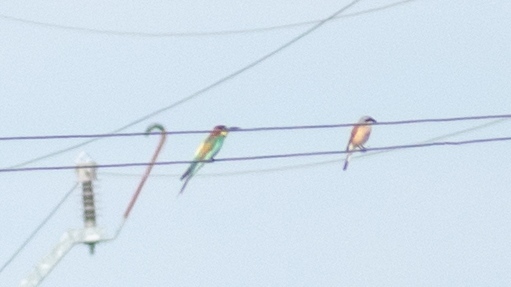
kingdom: Animalia
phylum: Chordata
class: Aves
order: Coraciiformes
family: Meropidae
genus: Merops
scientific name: Merops apiaster
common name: European bee-eater
